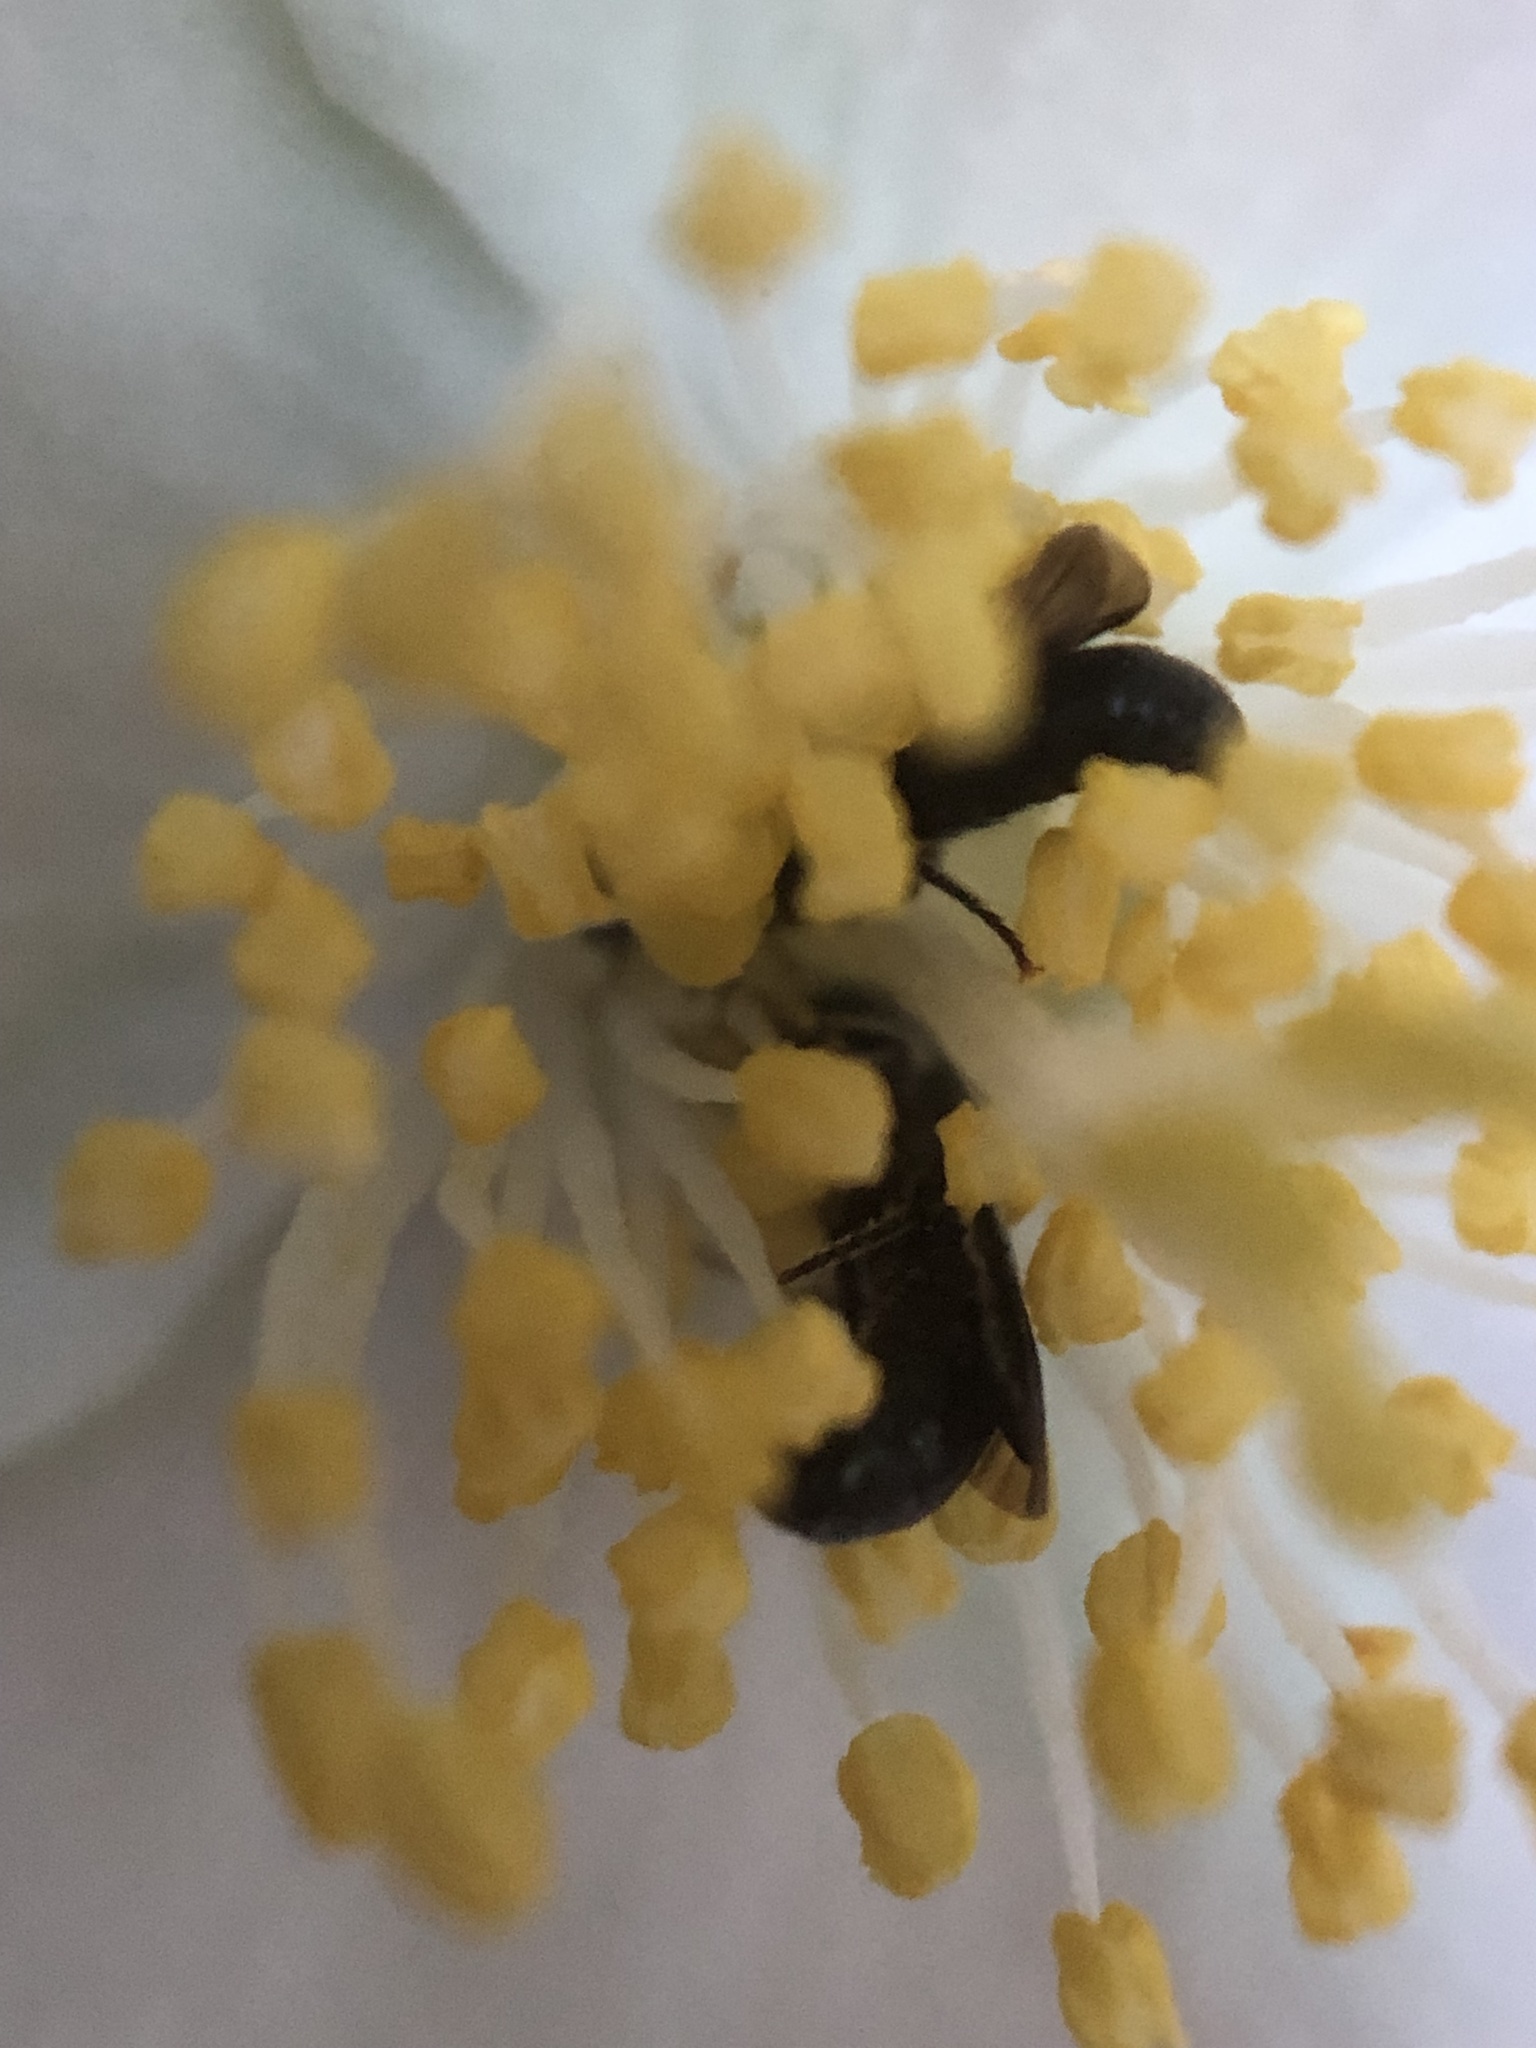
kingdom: Animalia
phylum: Arthropoda
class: Insecta
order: Hymenoptera
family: Megachilidae
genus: Chelostoma
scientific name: Chelostoma philadelphi
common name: Mock-orange scissor bee
